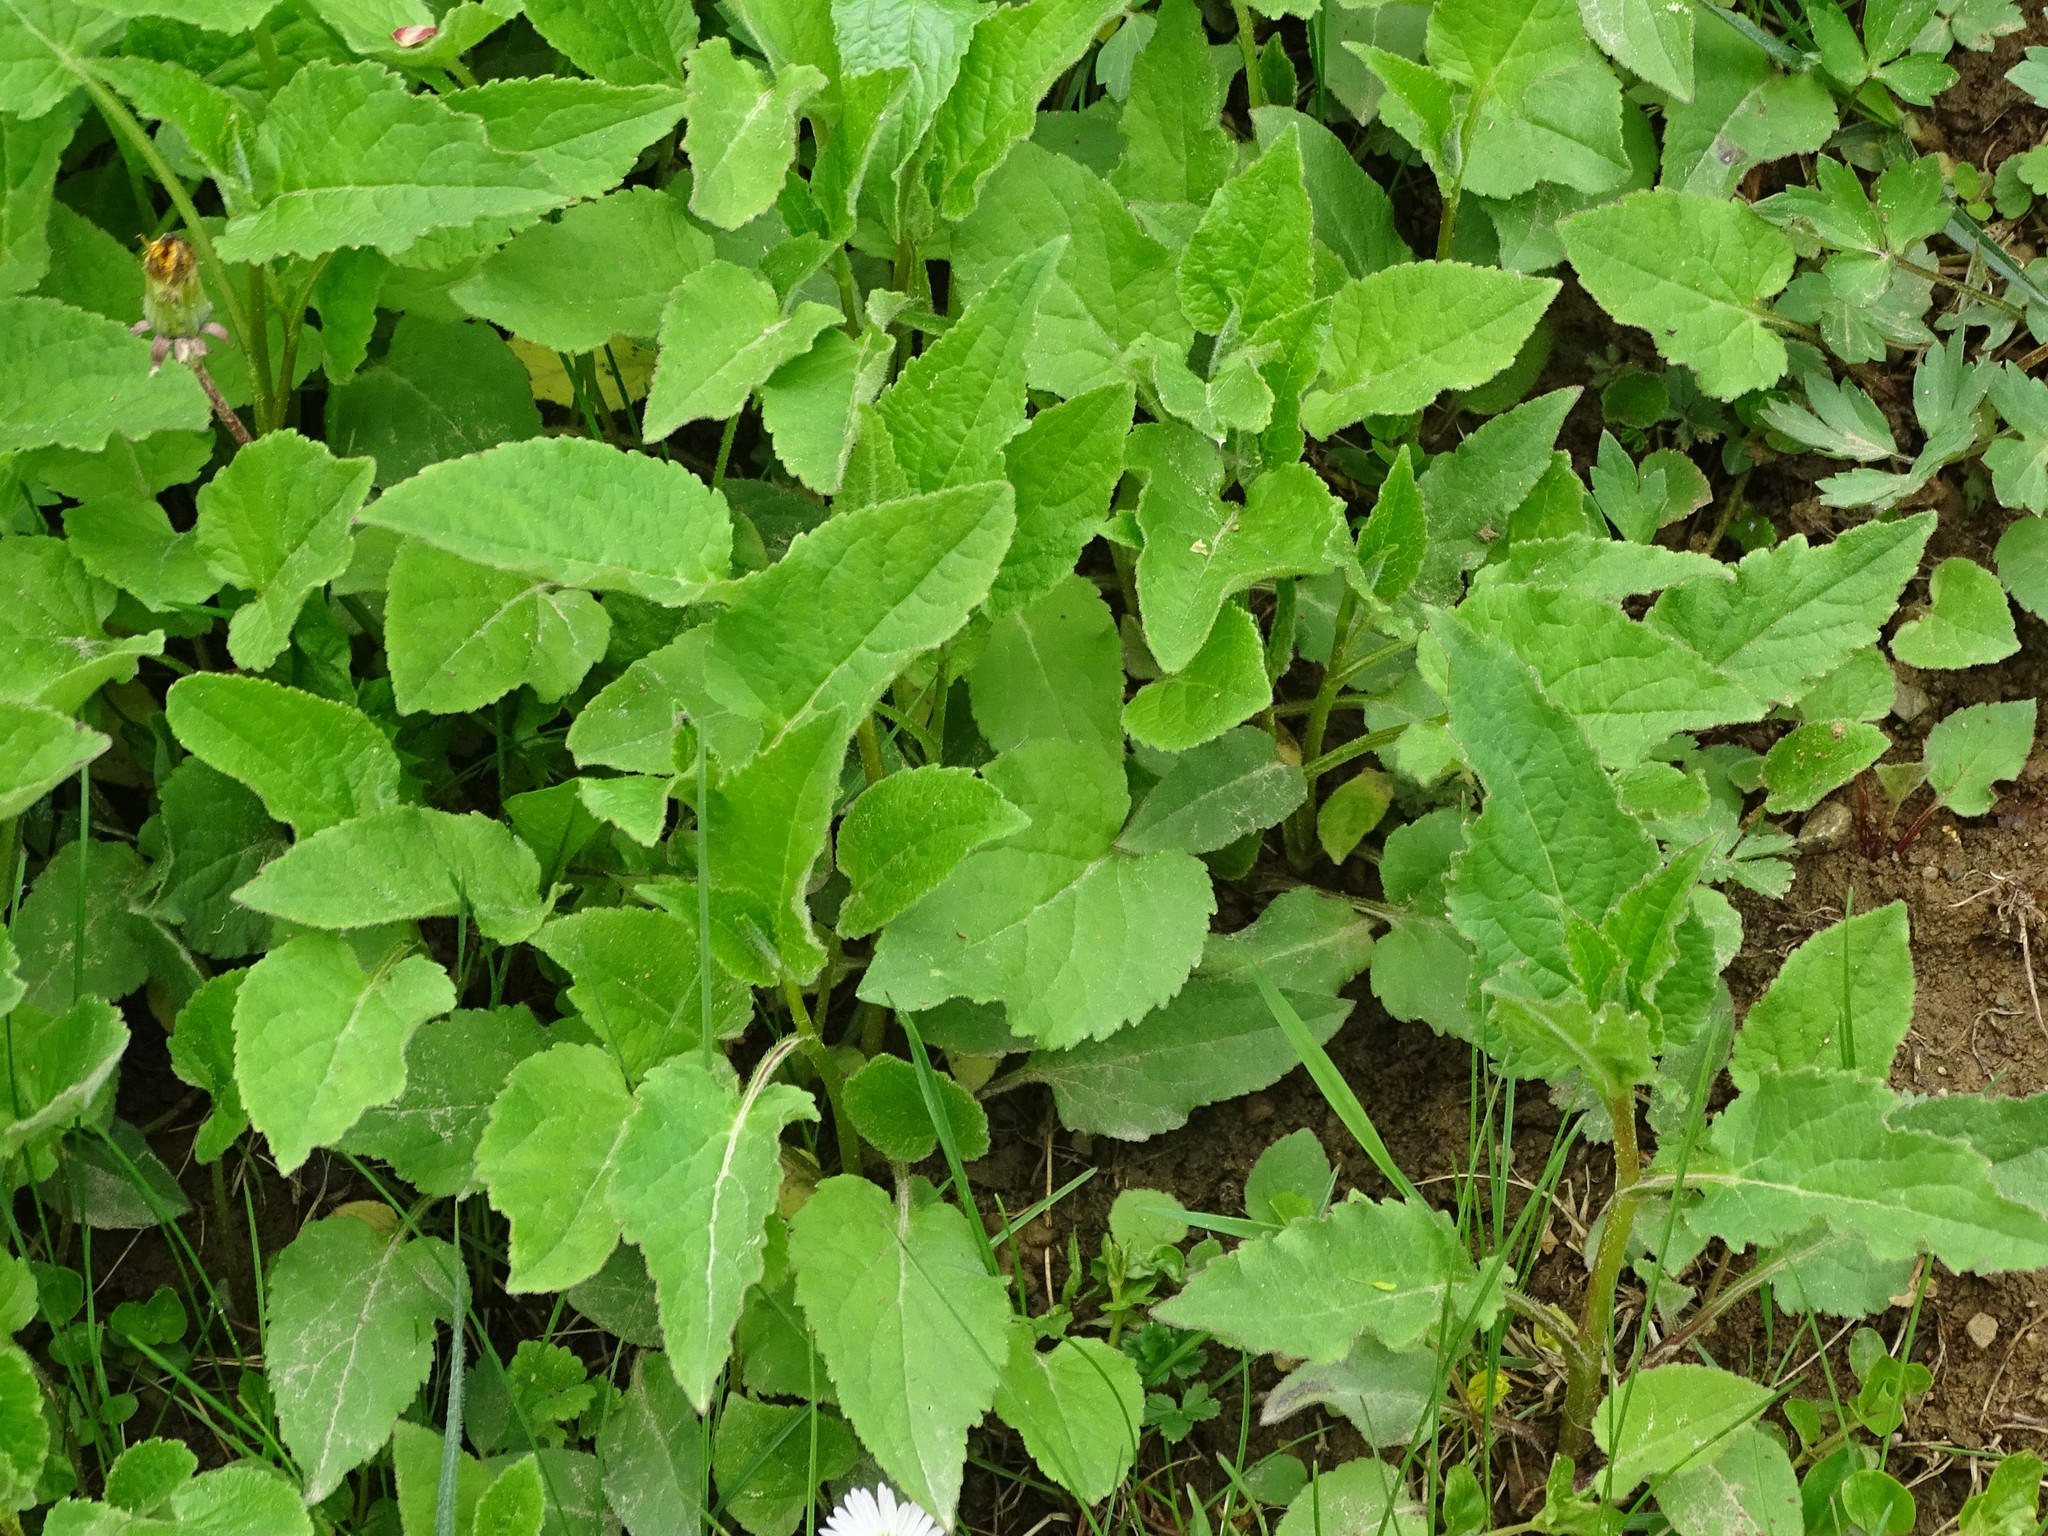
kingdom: Plantae
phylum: Tracheophyta
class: Magnoliopsida
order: Asterales
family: Campanulaceae
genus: Campanula
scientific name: Campanula rapunculoides
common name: Creeping bellflower
